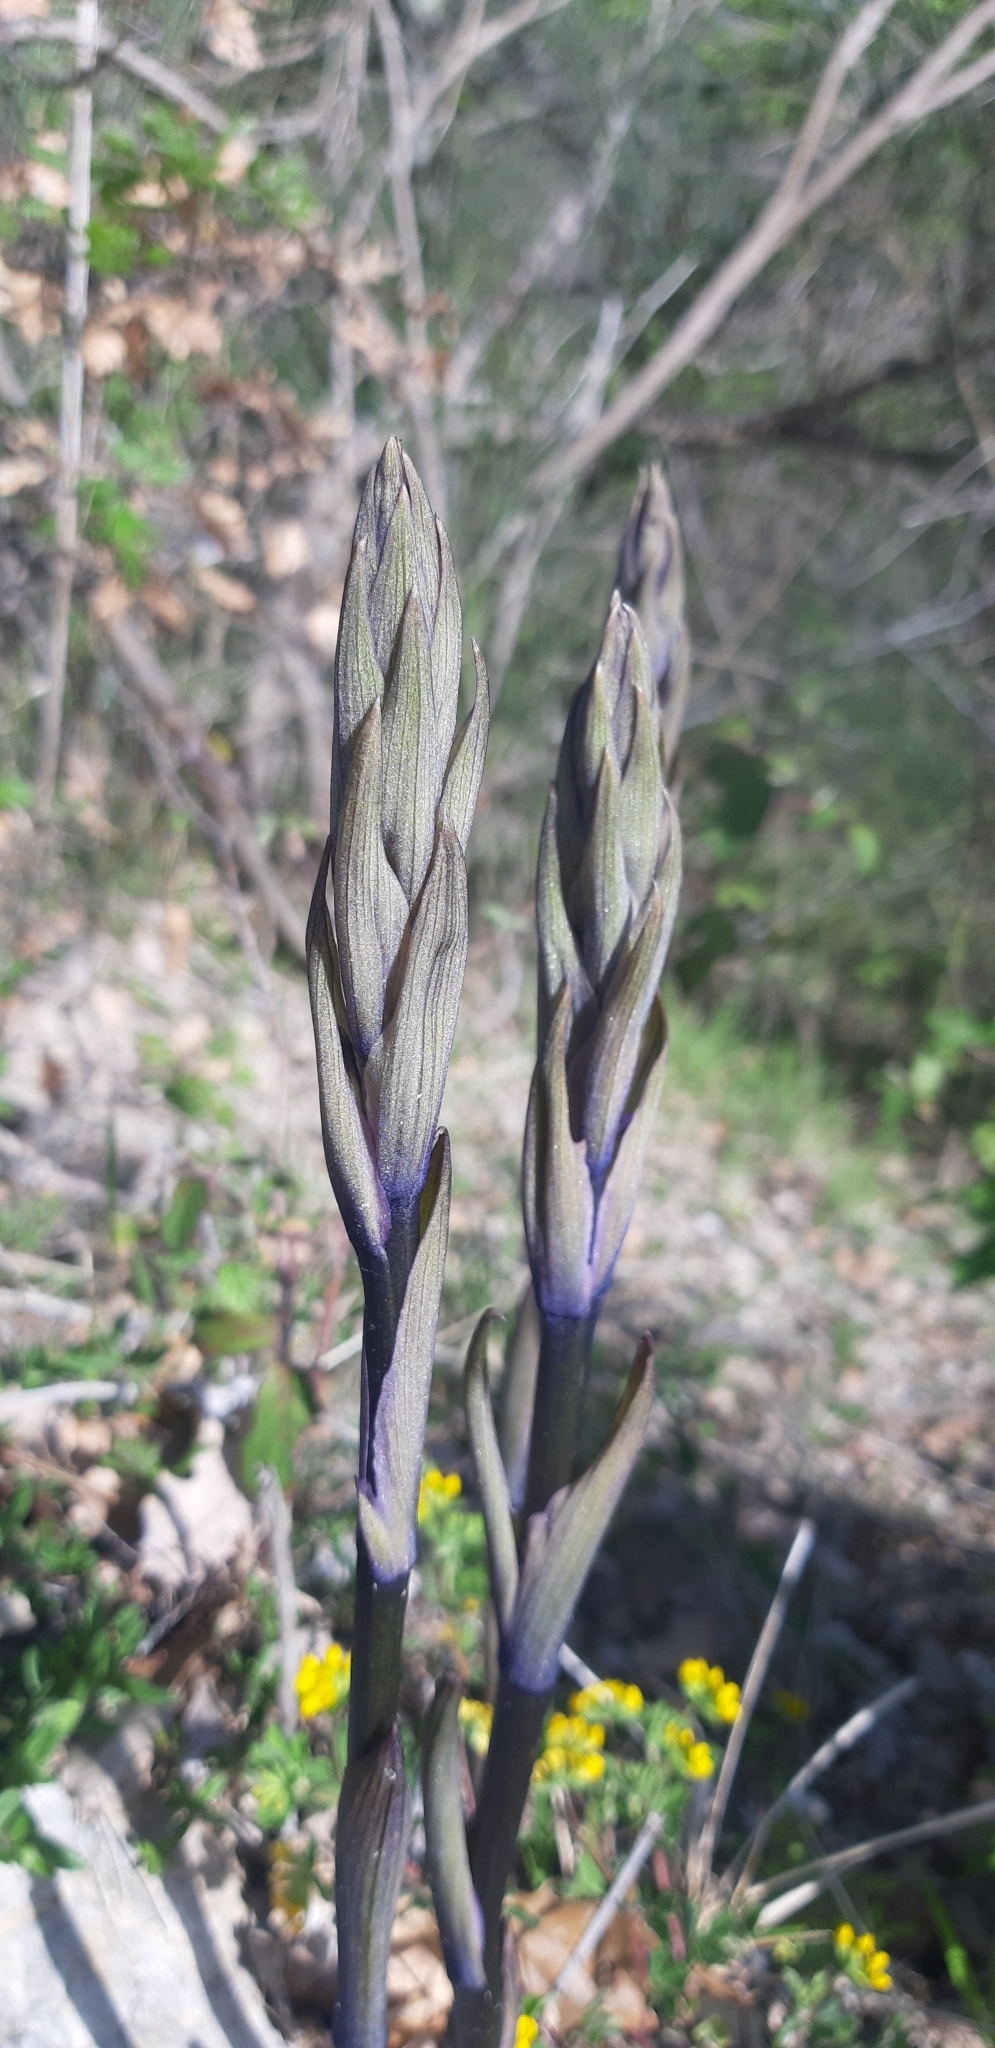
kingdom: Plantae
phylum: Tracheophyta
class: Liliopsida
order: Asparagales
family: Orchidaceae
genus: Limodorum
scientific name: Limodorum abortivum
